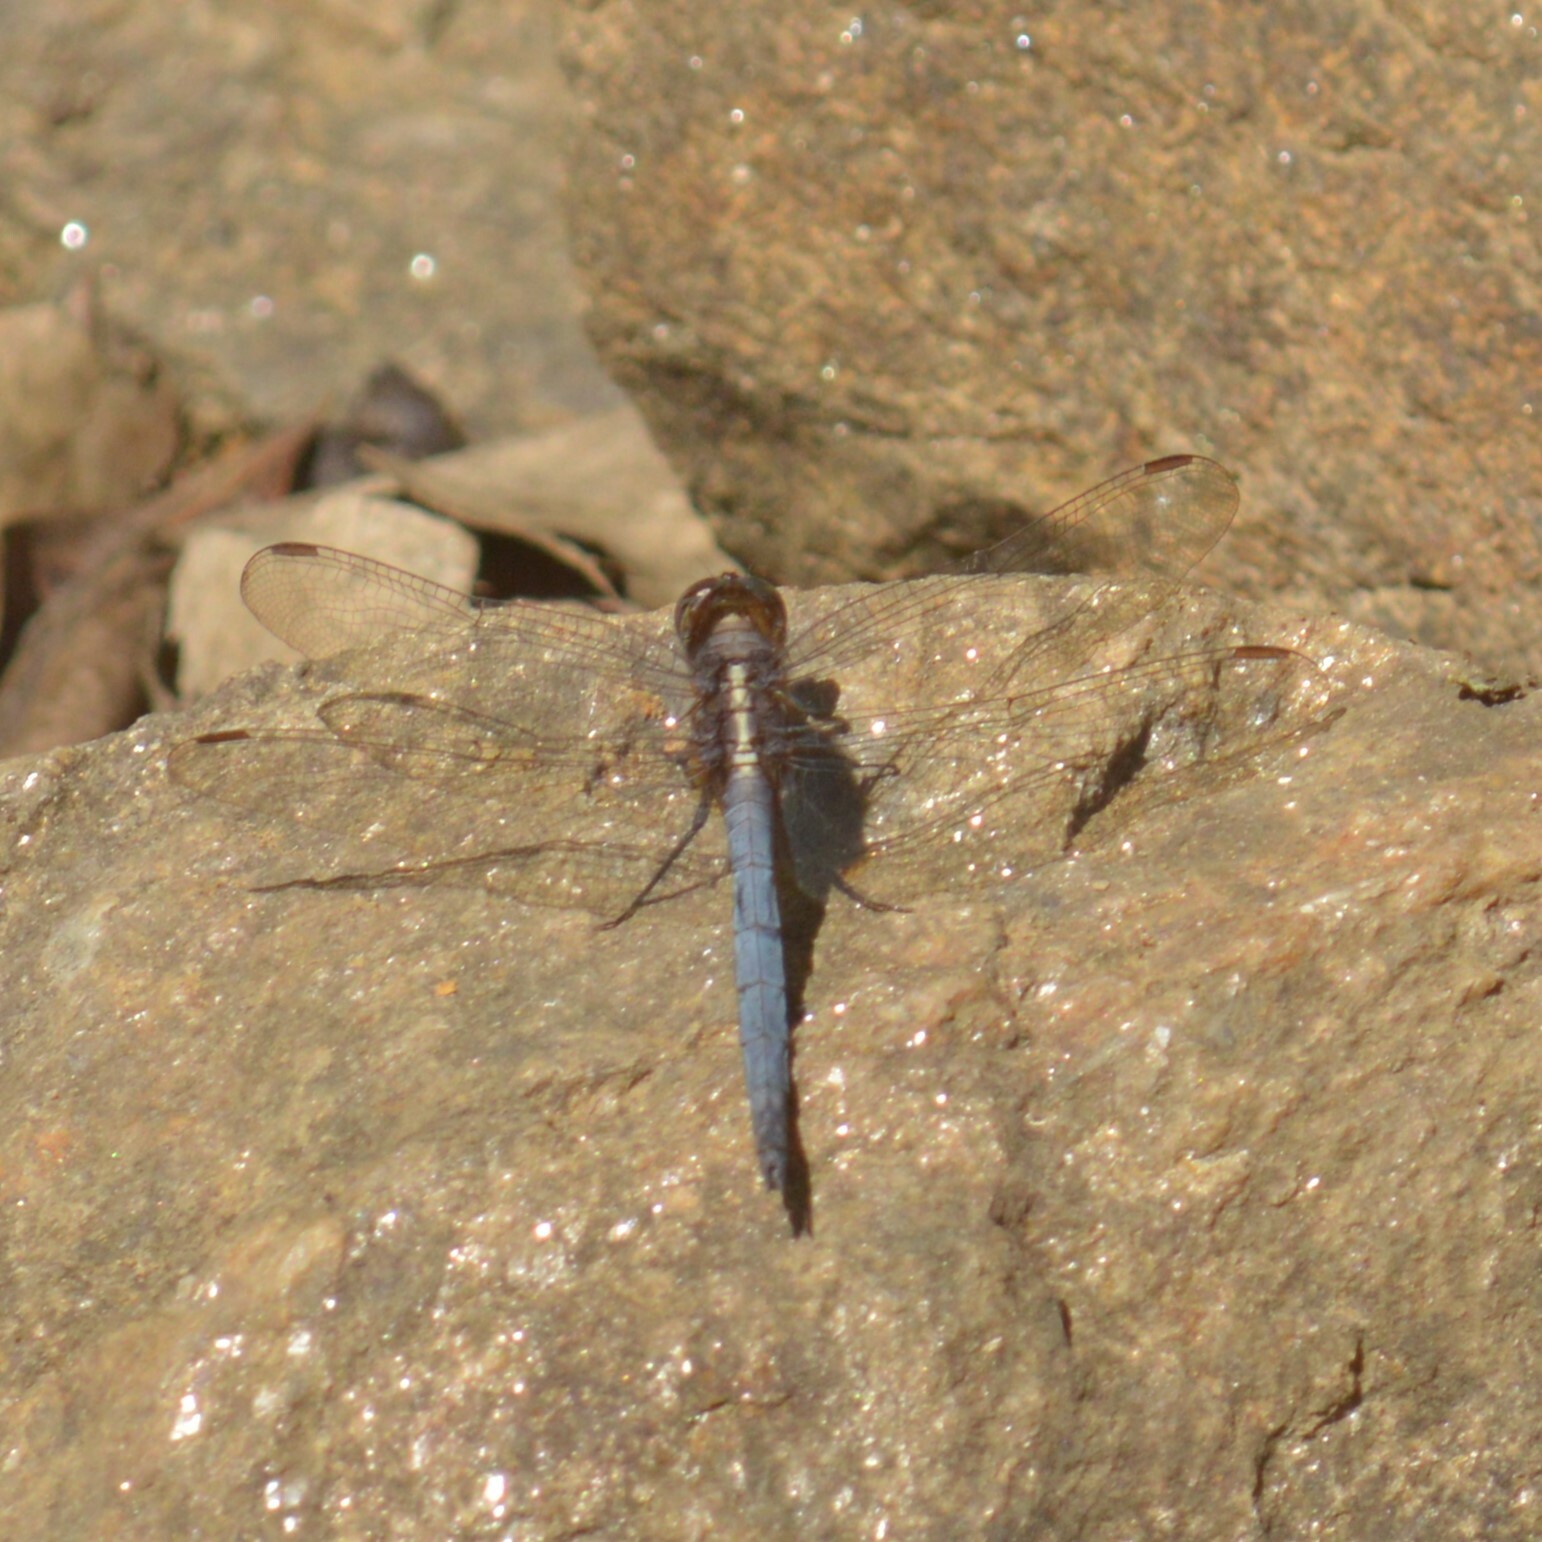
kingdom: Animalia
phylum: Arthropoda
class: Insecta
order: Odonata
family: Libellulidae
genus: Orthetrum
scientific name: Orthetrum taeniolatum
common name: Small skimmer
